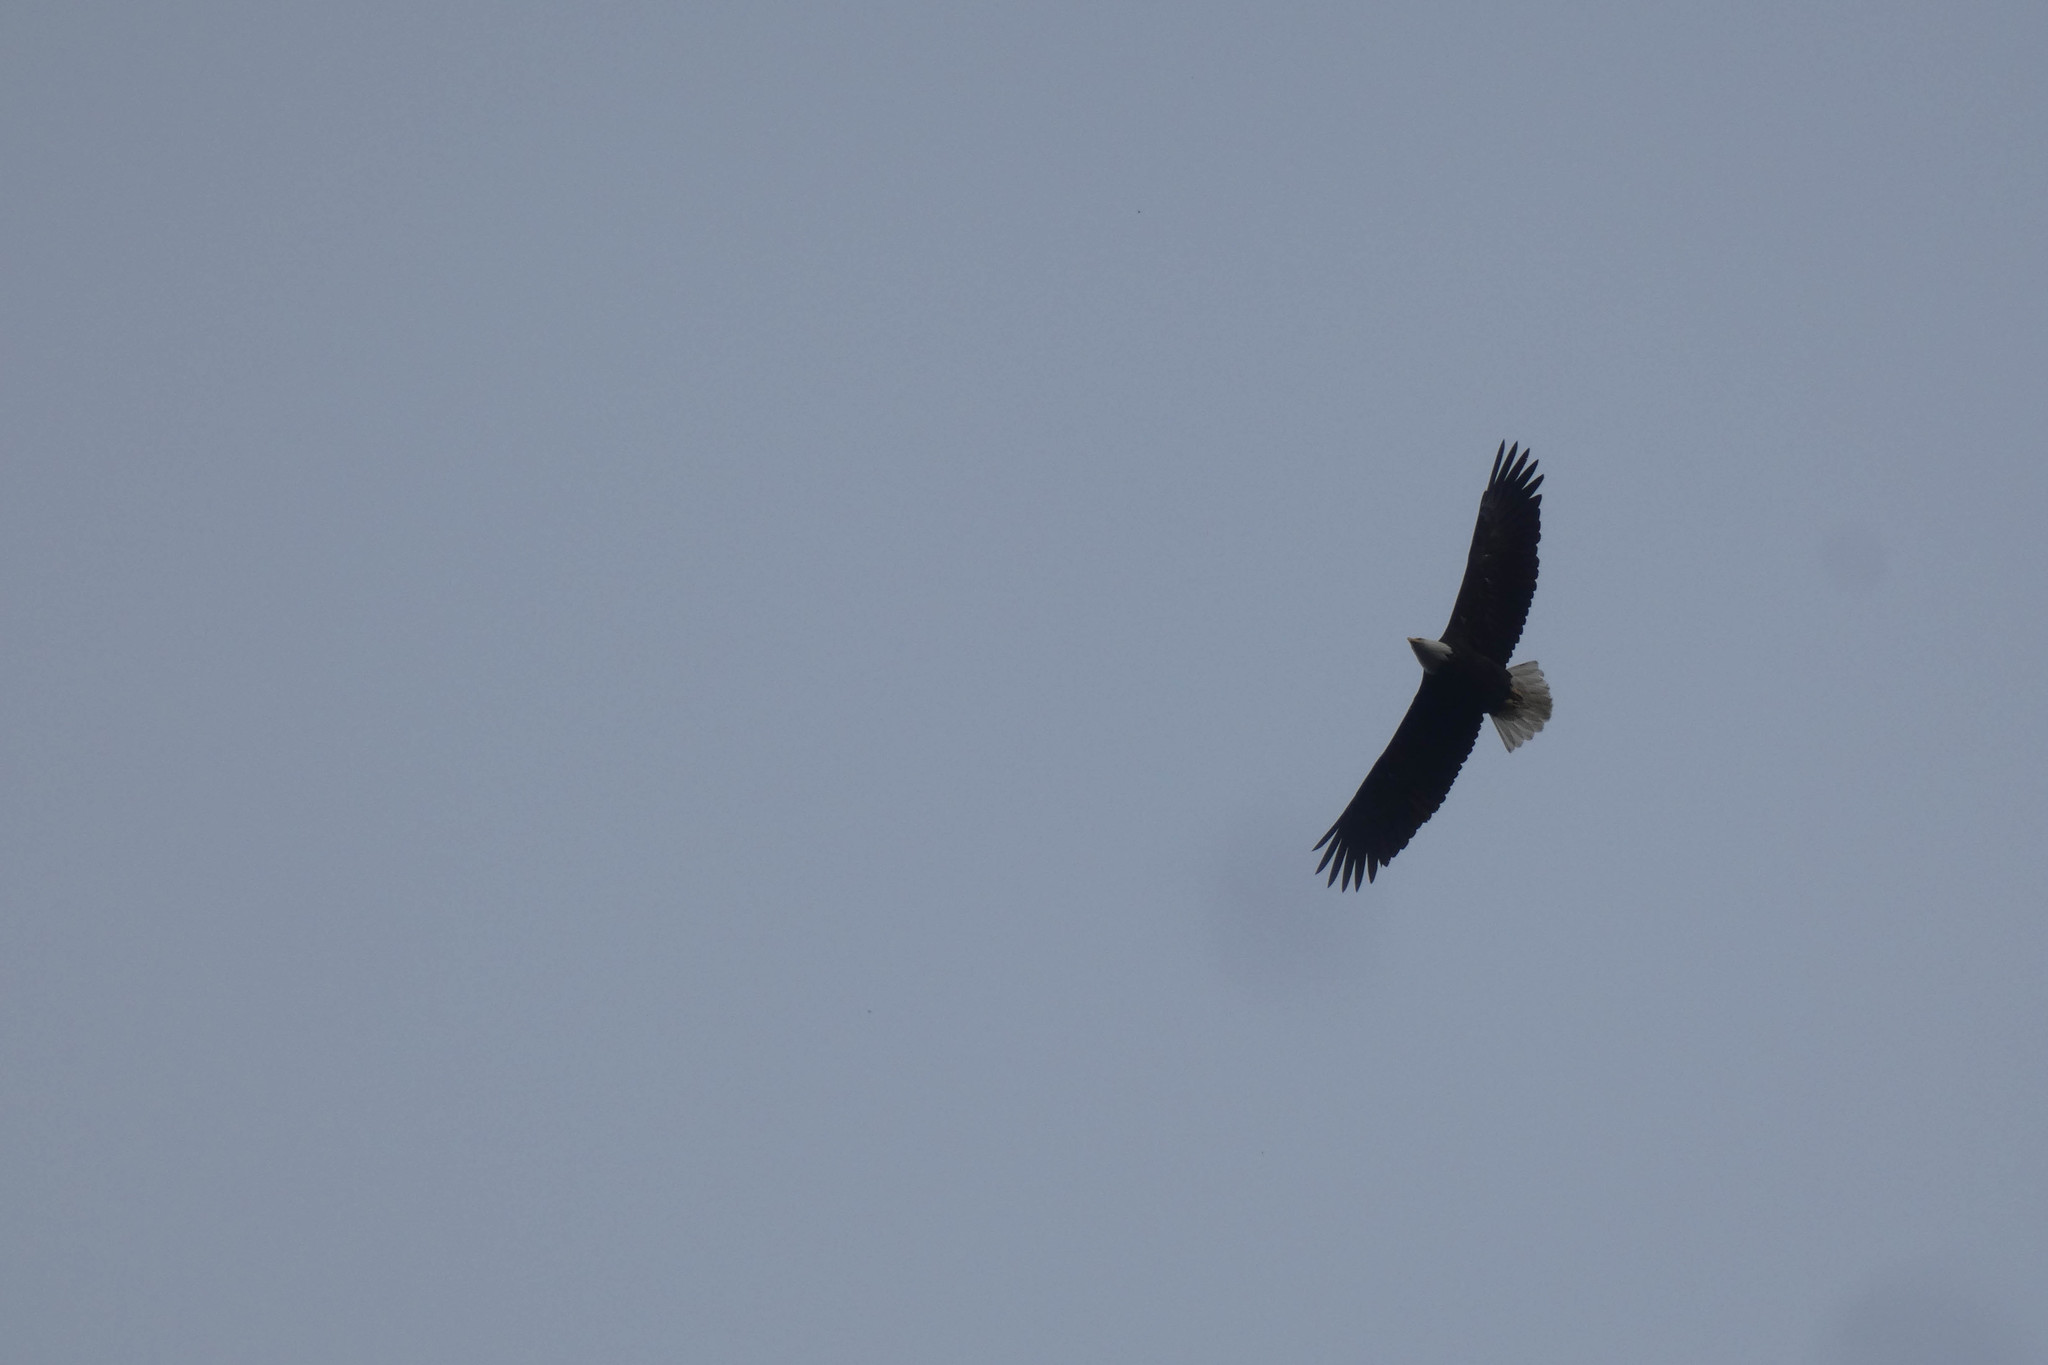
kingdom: Animalia
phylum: Chordata
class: Aves
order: Accipitriformes
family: Accipitridae
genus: Haliaeetus
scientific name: Haliaeetus leucocephalus
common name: Bald eagle
